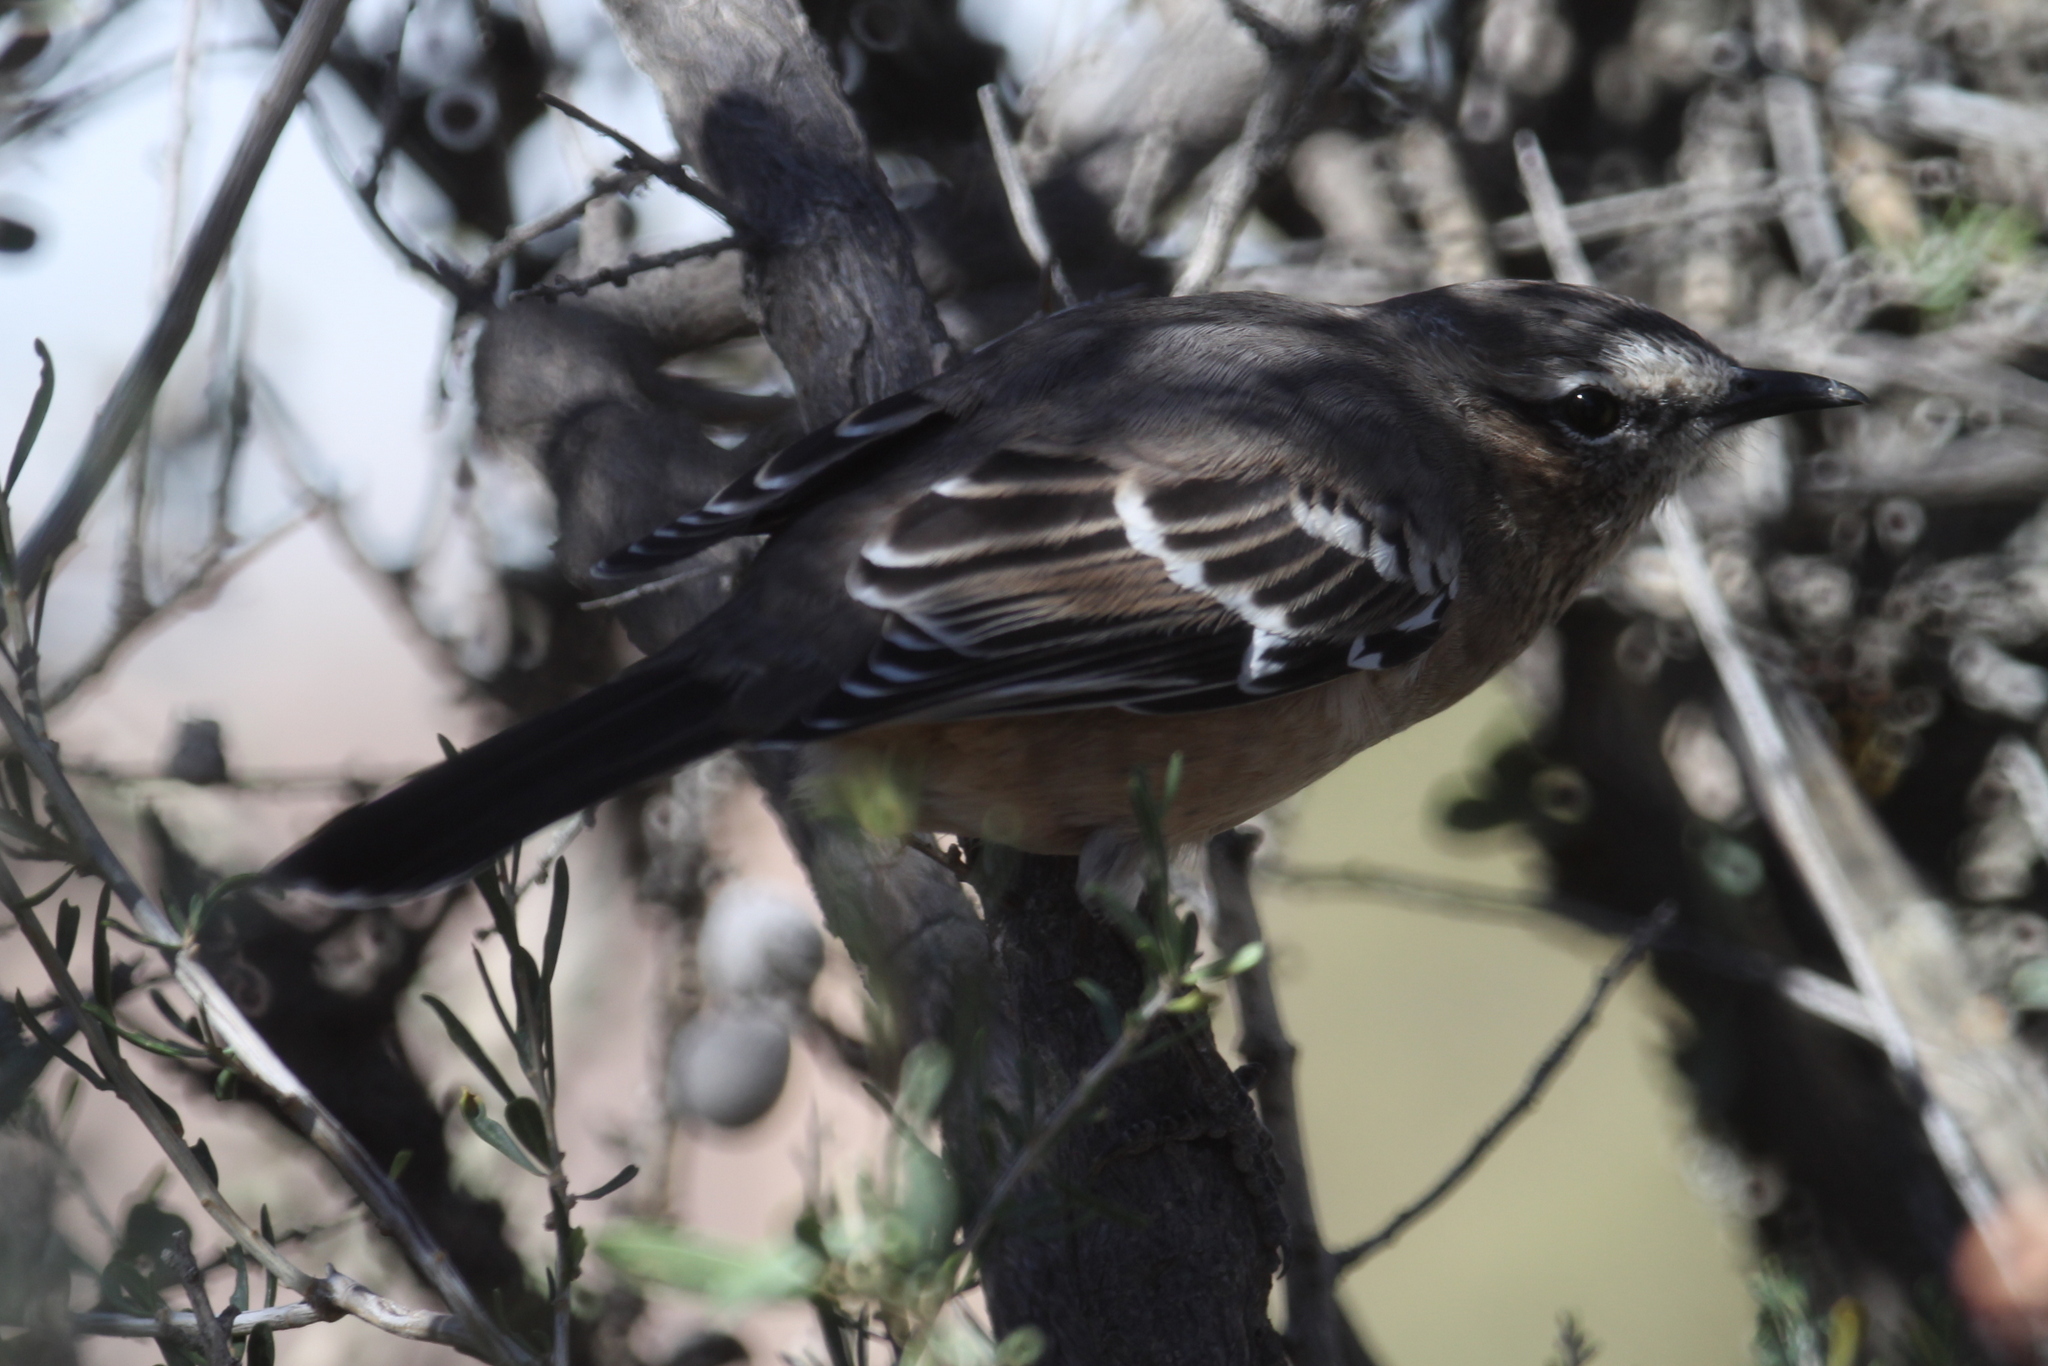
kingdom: Animalia
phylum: Chordata
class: Aves
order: Passeriformes
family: Mimidae
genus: Mimus
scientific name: Mimus patagonicus
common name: Patagonian mockingbird
